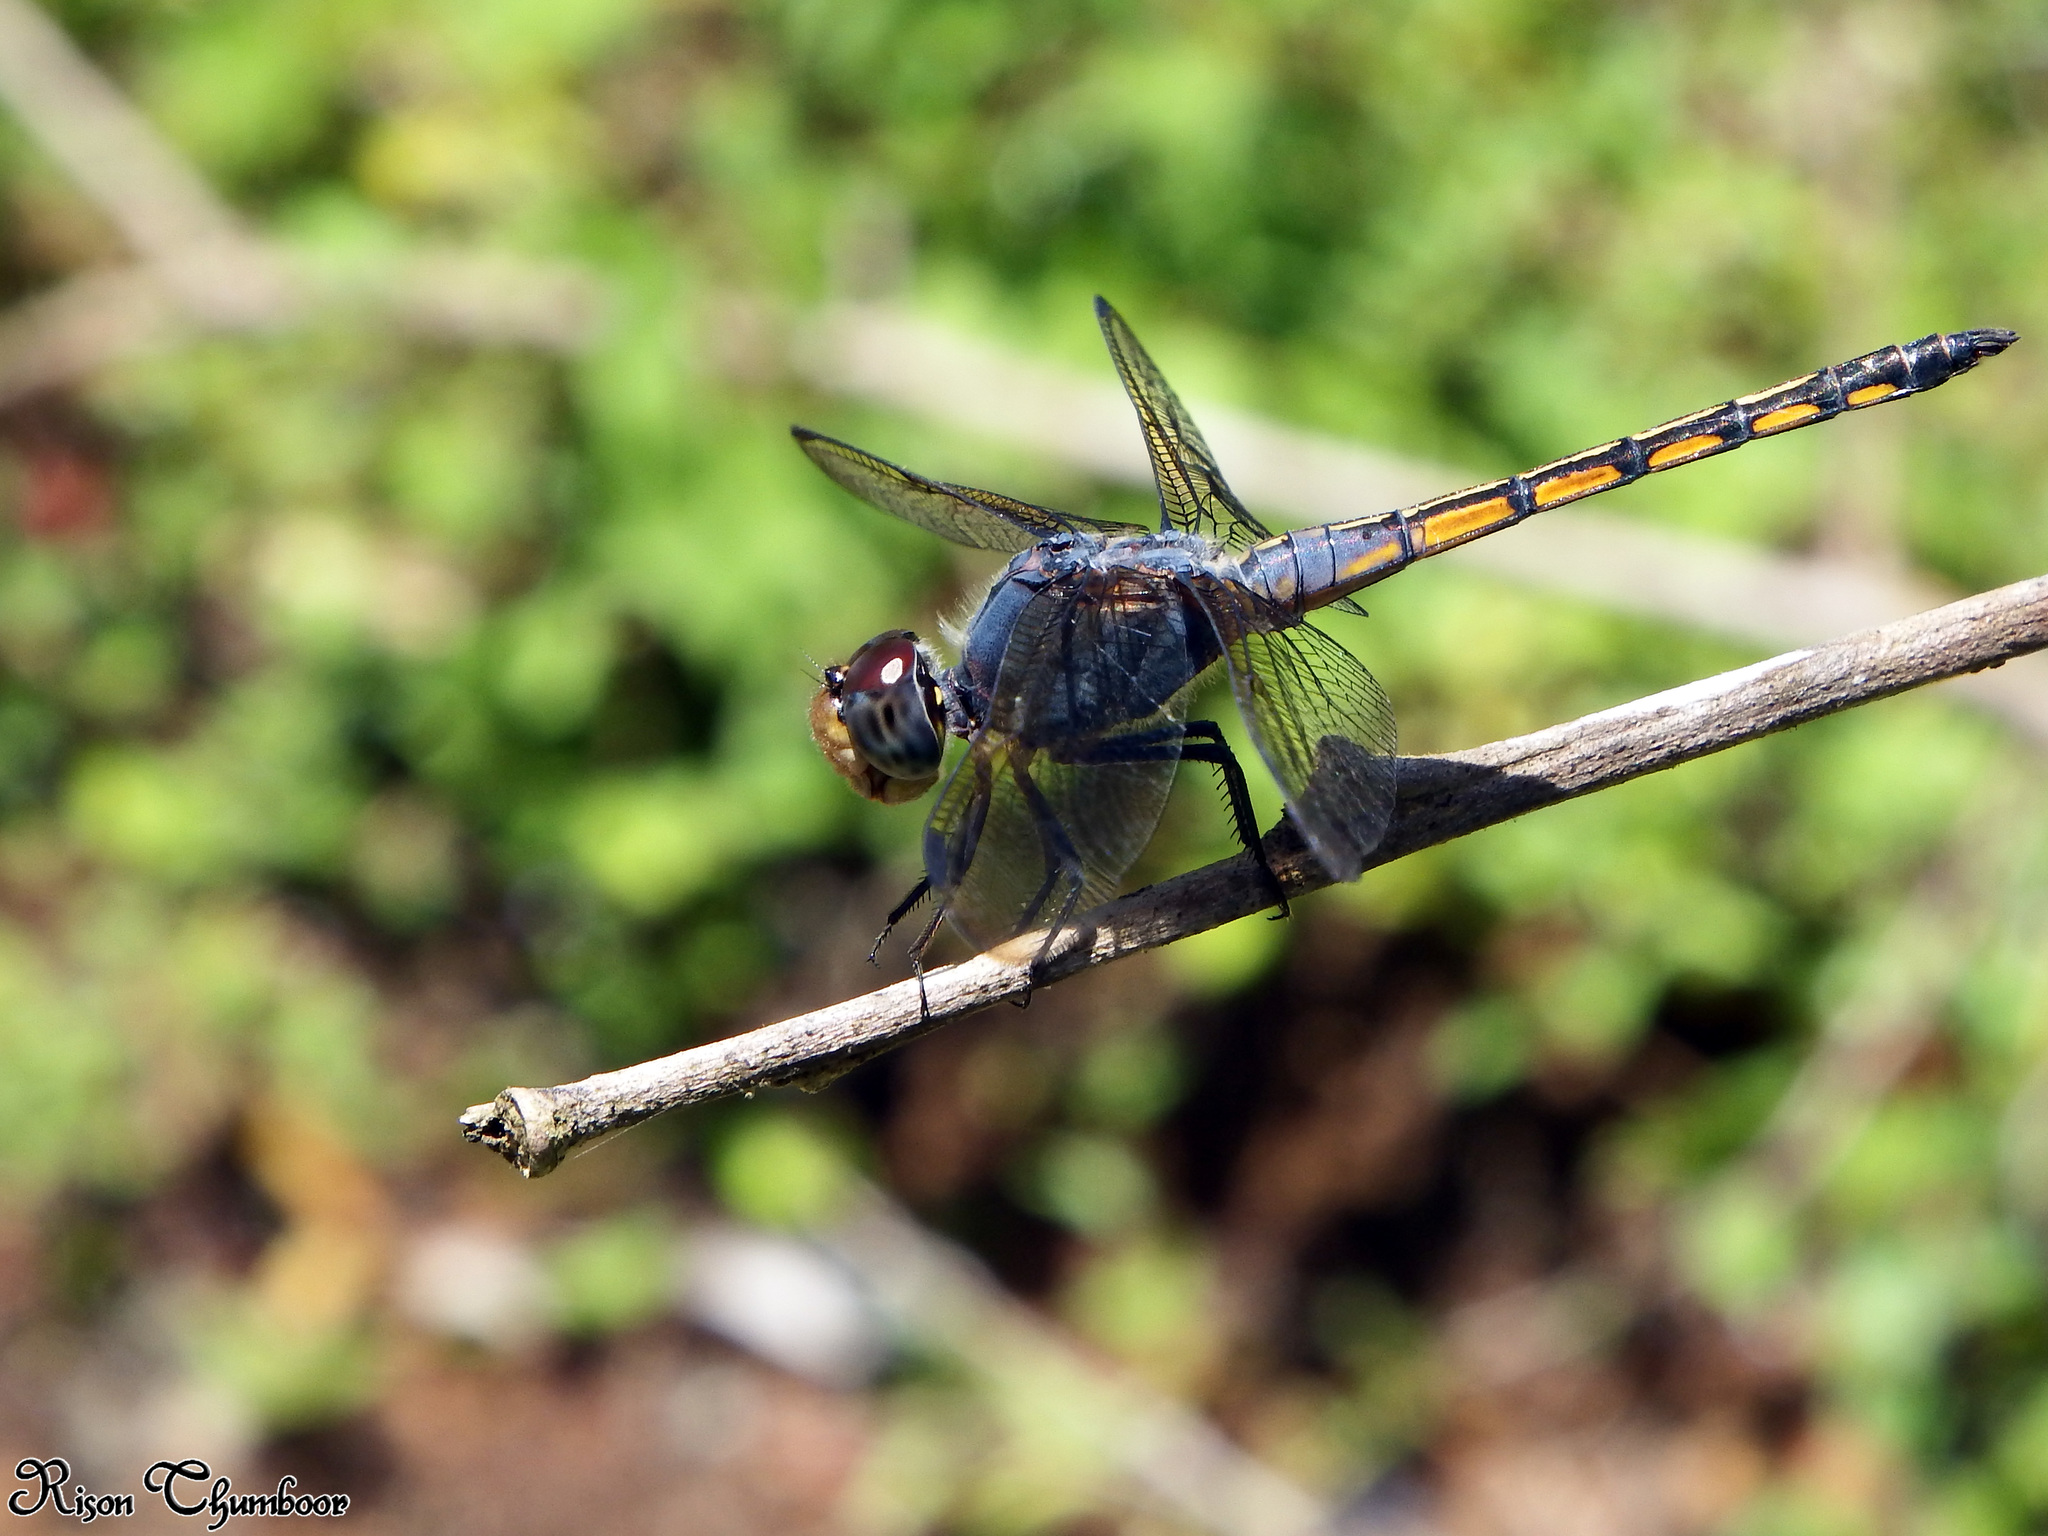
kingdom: Animalia
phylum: Arthropoda
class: Insecta
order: Odonata
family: Libellulidae
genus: Potamarcha
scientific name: Potamarcha congener
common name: Blue chaser
